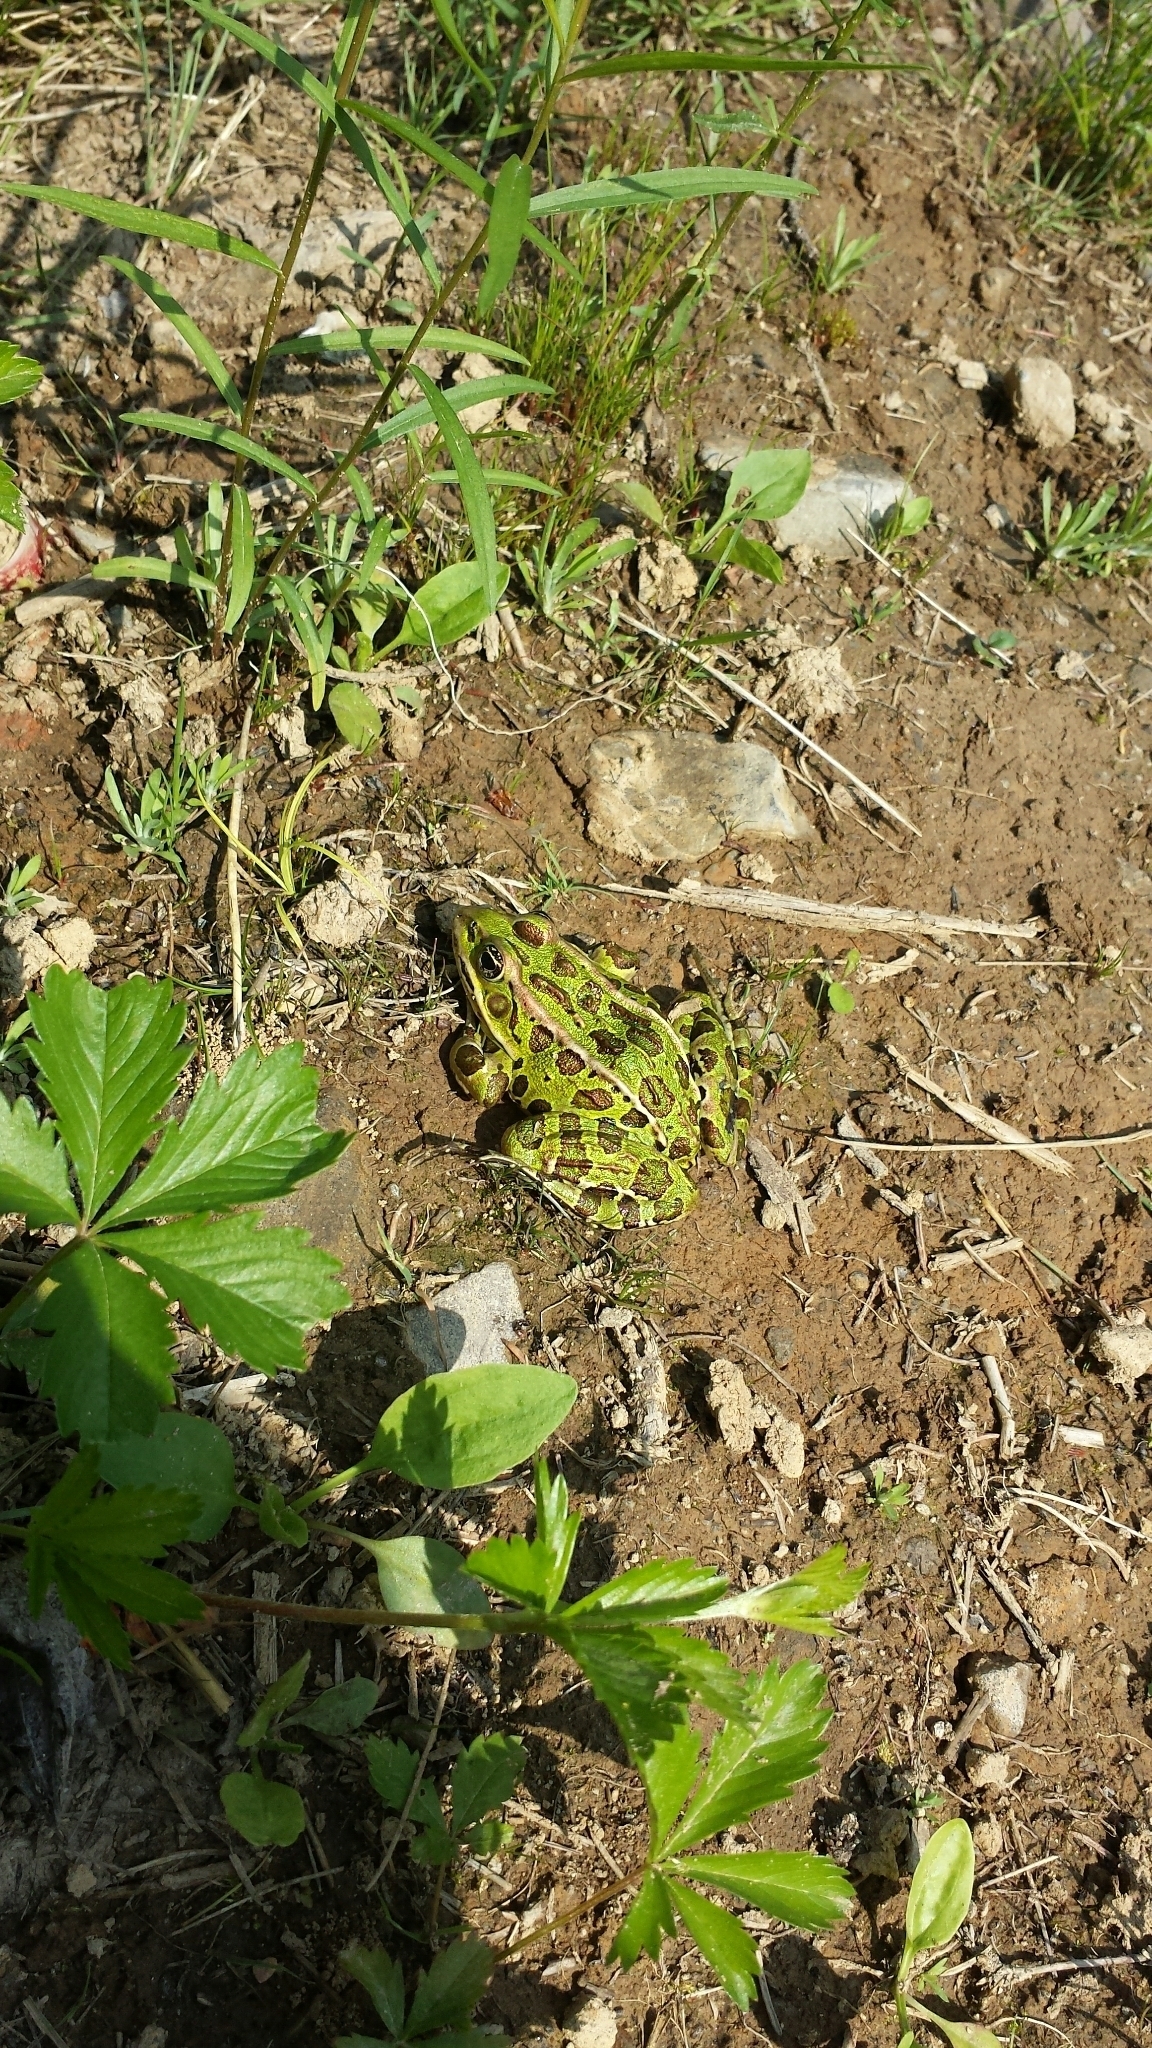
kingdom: Animalia
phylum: Chordata
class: Amphibia
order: Anura
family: Ranidae
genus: Lithobates
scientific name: Lithobates pipiens
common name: Northern leopard frog
